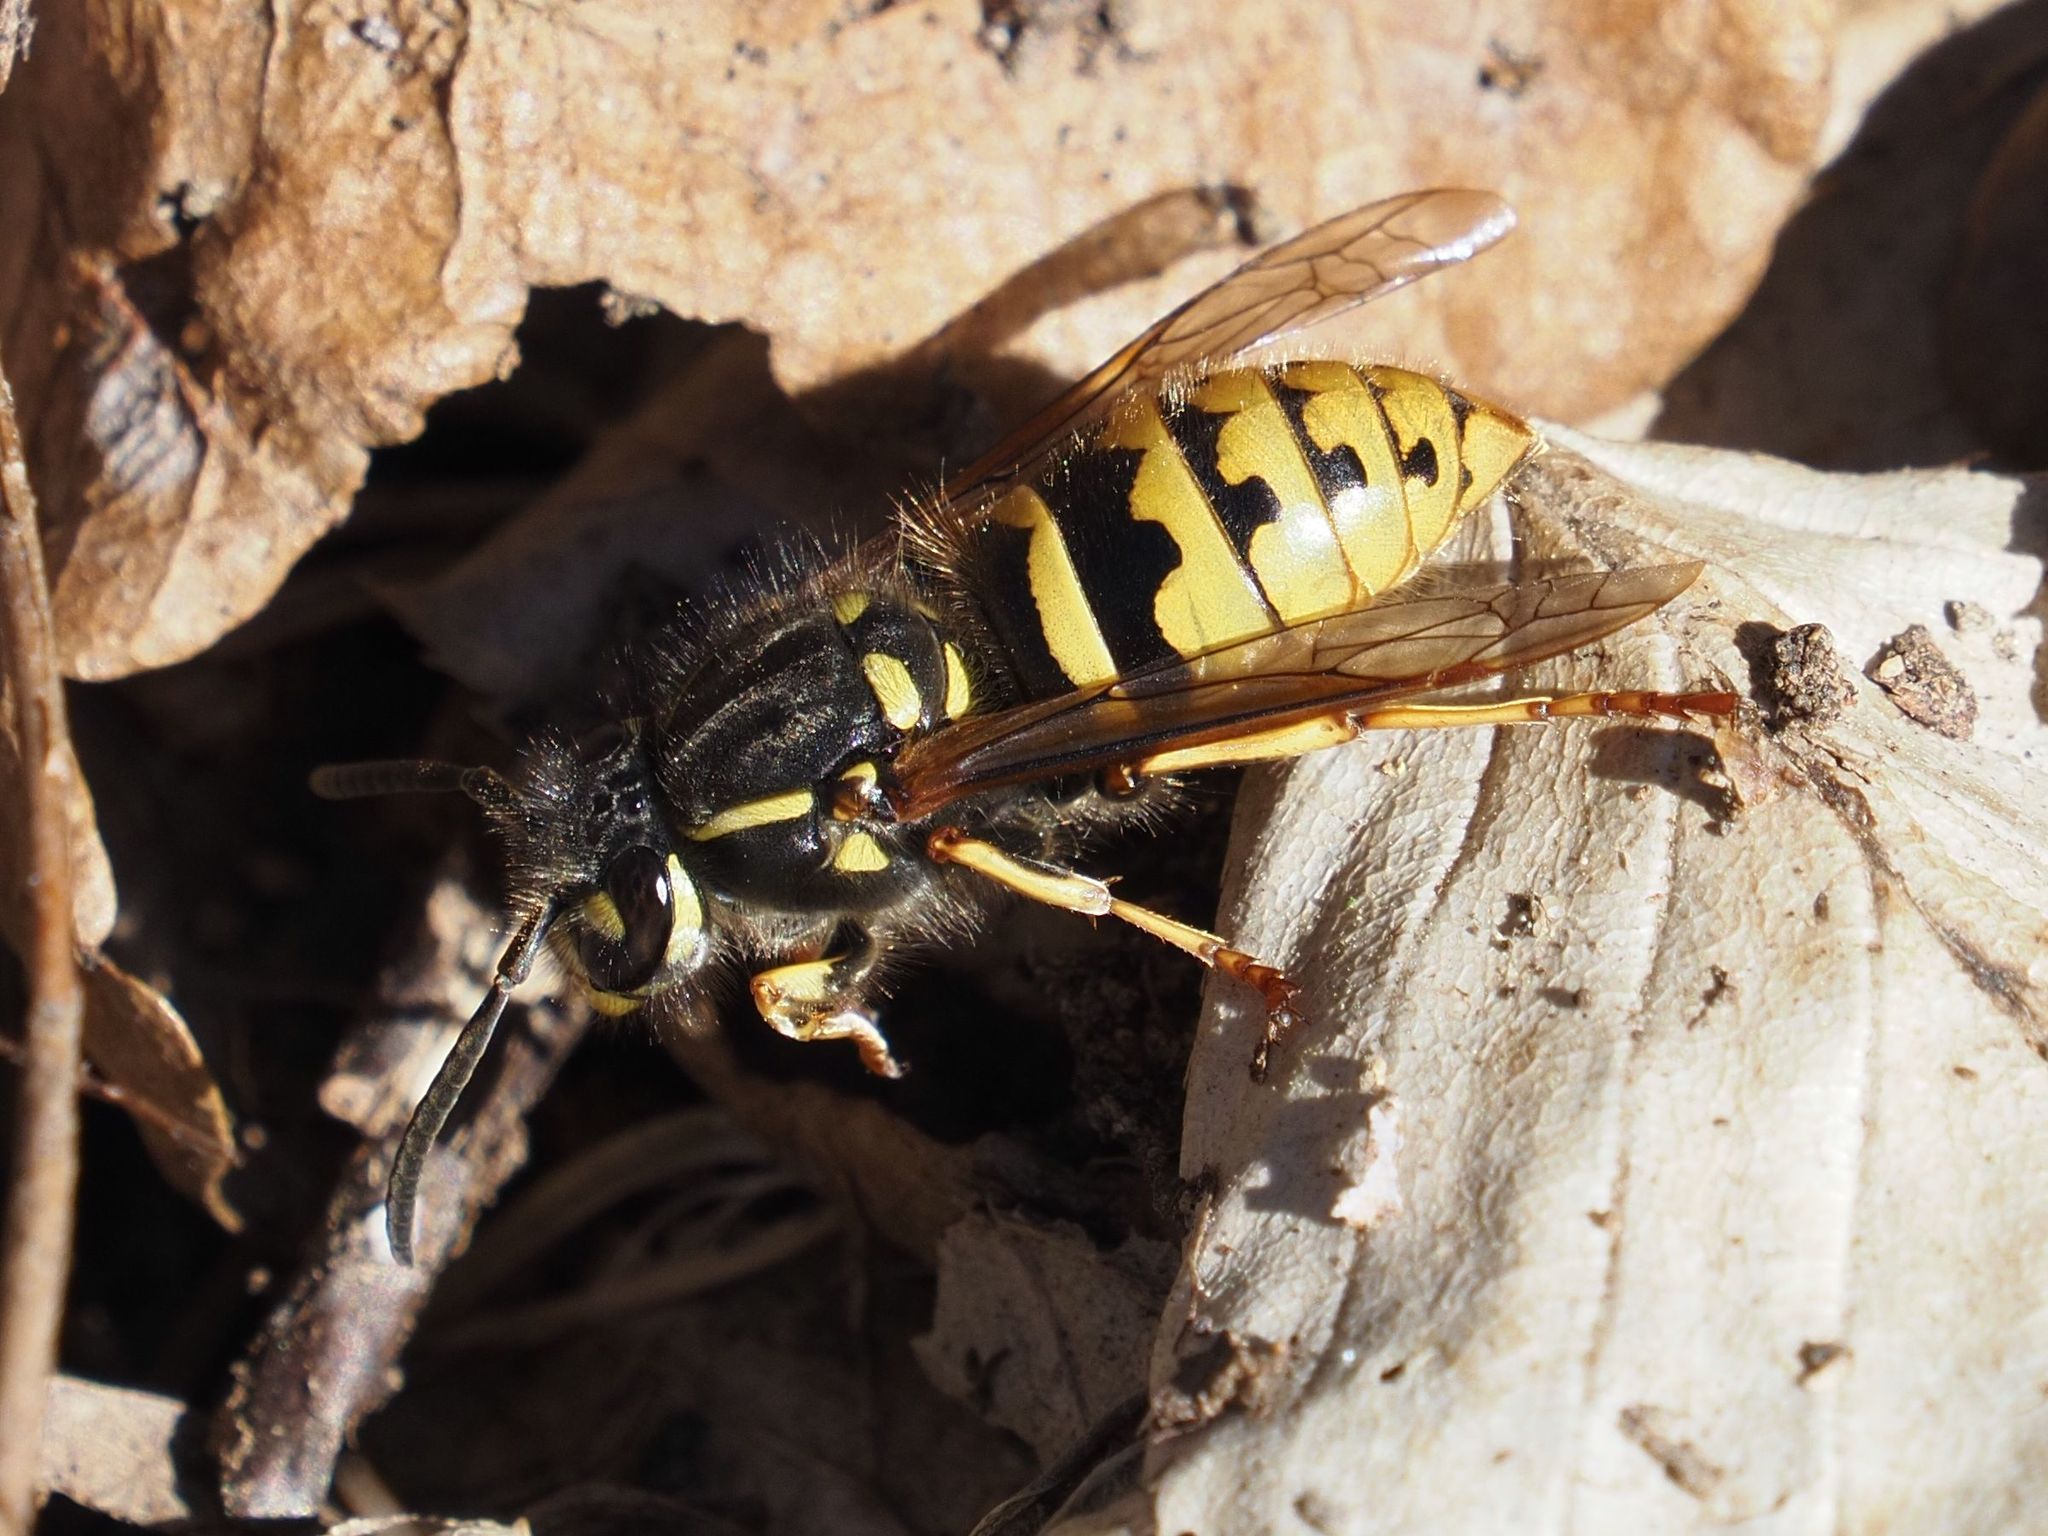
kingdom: Animalia
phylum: Arthropoda
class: Insecta
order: Hymenoptera
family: Vespidae
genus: Vespula
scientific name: Vespula vulgaris
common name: Common wasp
